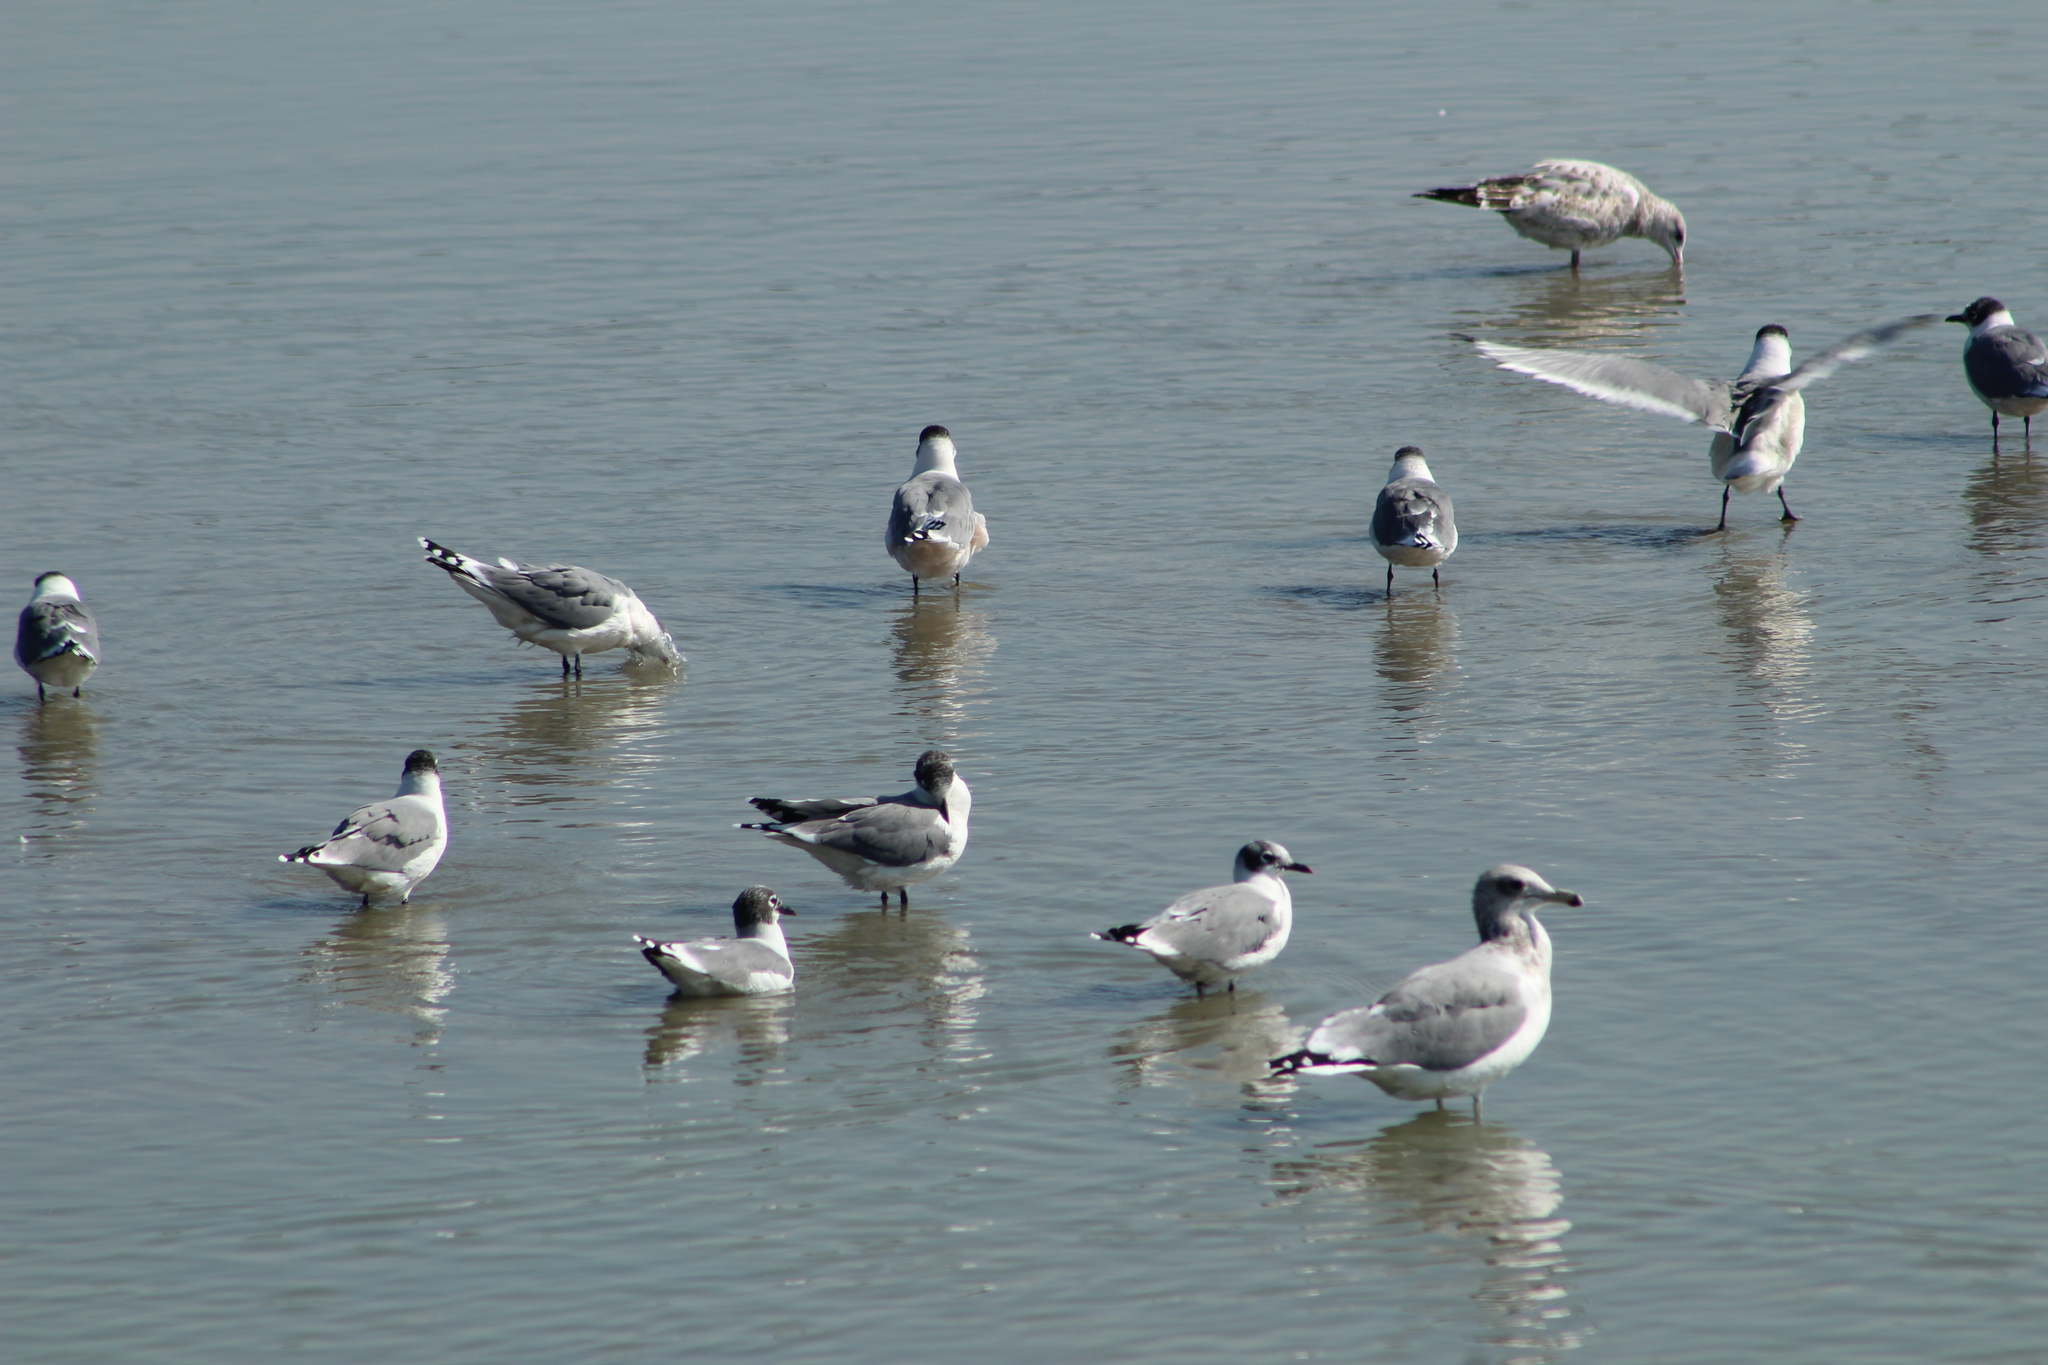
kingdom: Animalia
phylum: Chordata
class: Aves
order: Charadriiformes
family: Laridae
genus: Leucophaeus
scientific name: Leucophaeus pipixcan
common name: Franklin's gull
